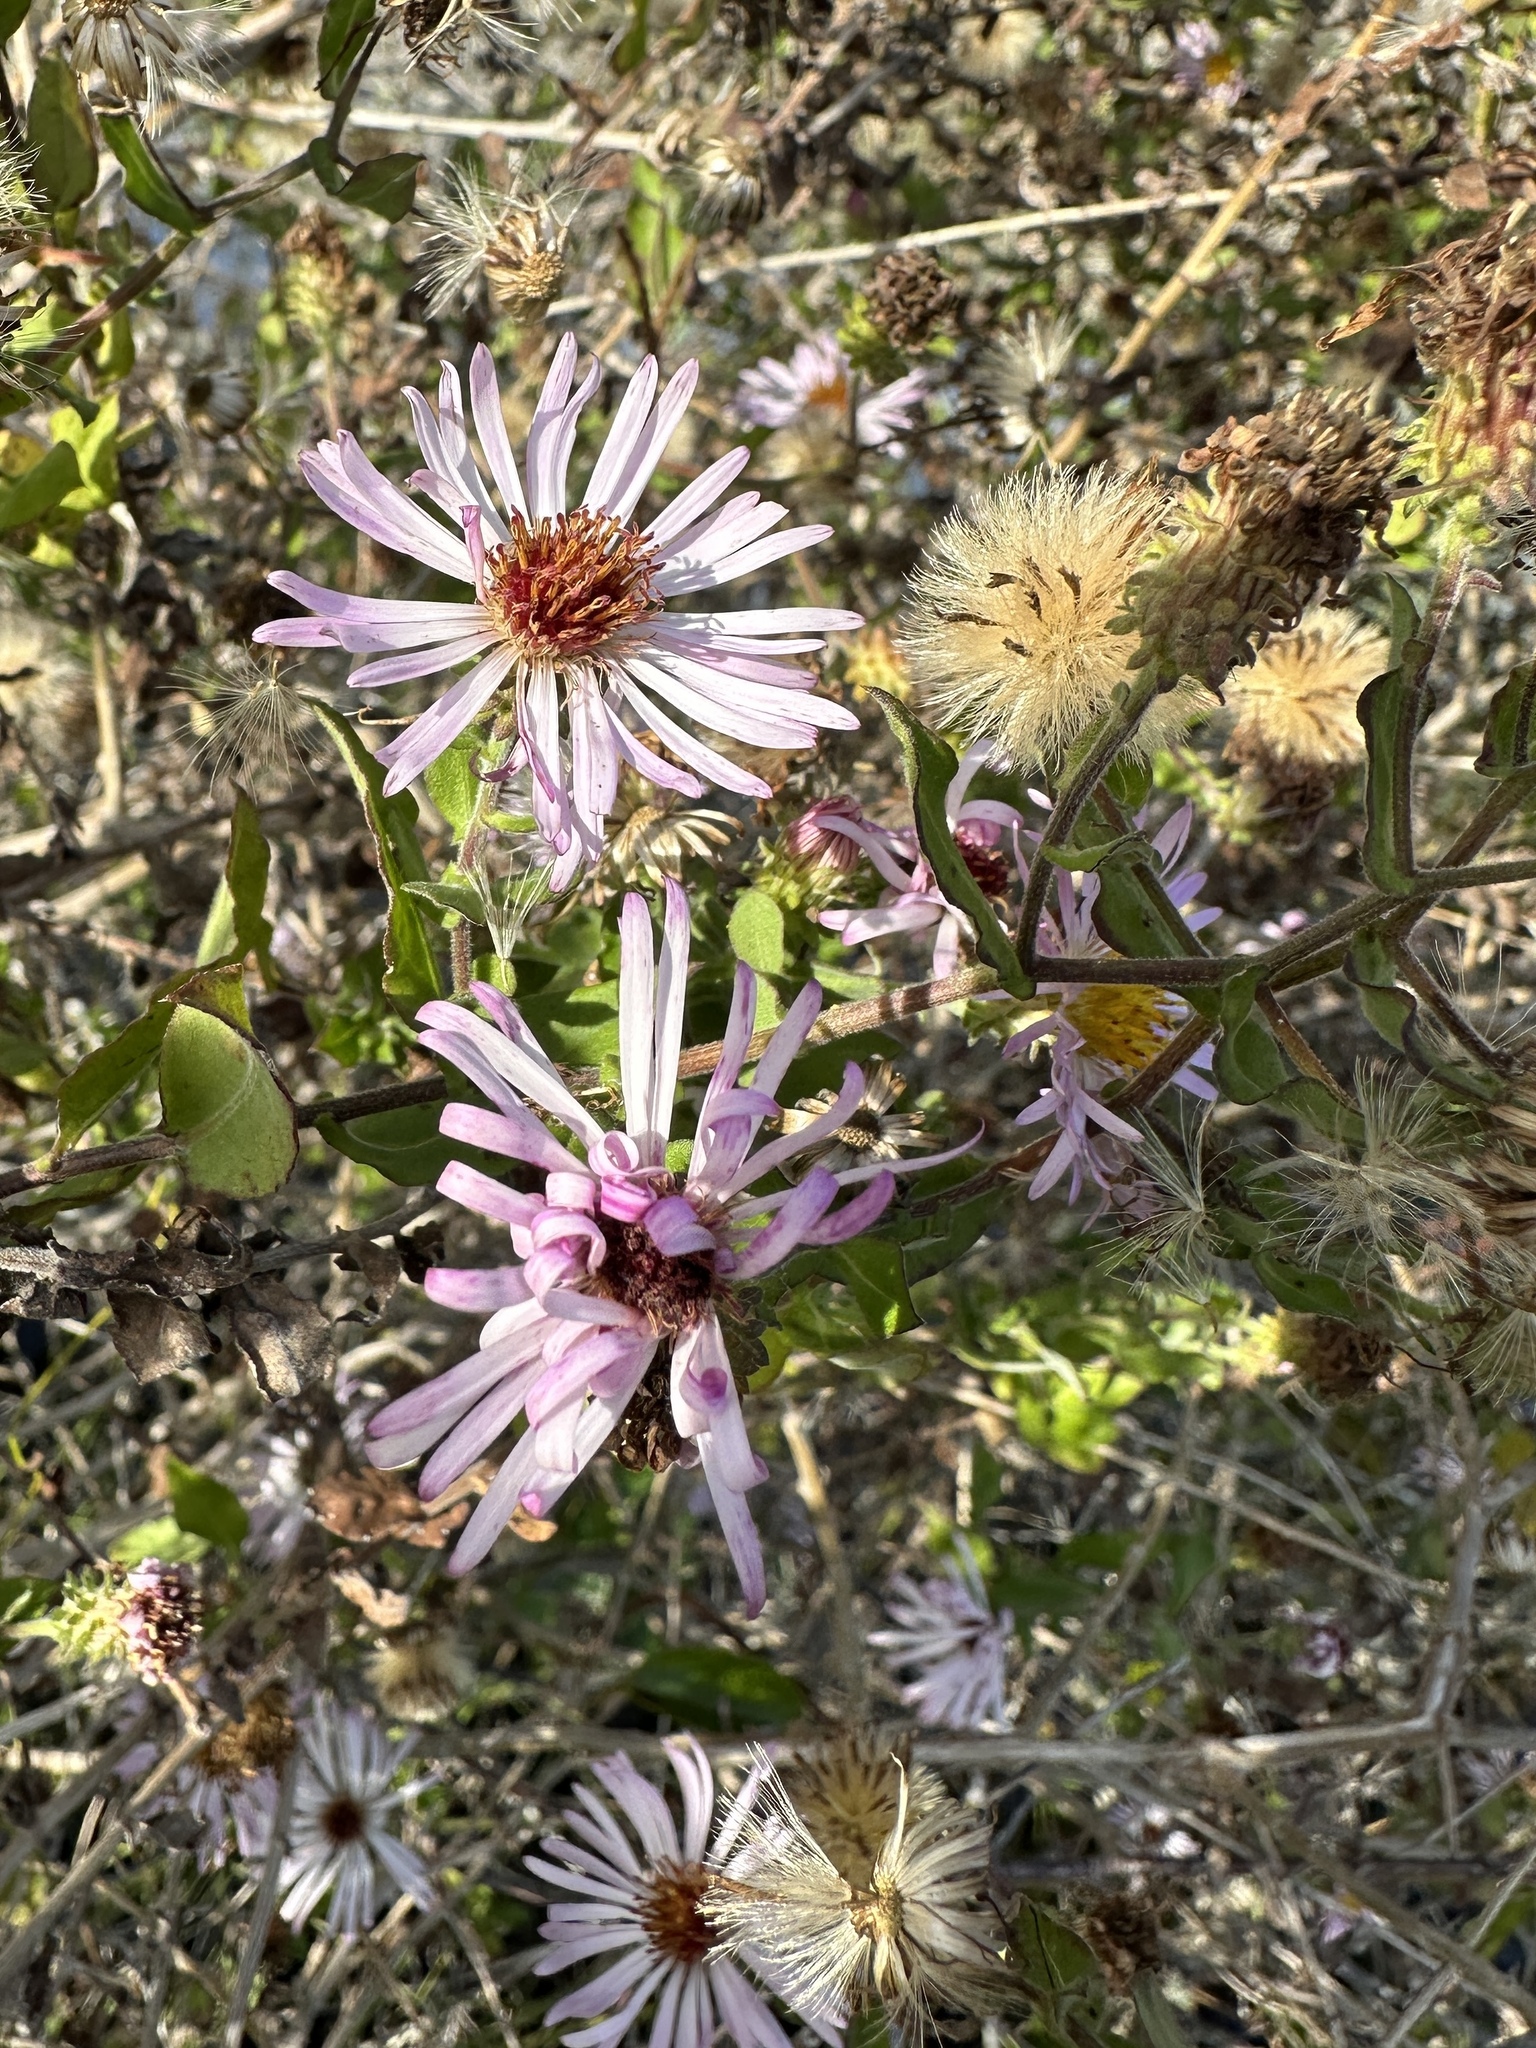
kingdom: Plantae
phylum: Tracheophyta
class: Magnoliopsida
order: Asterales
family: Asteraceae
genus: Ampelaster
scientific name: Ampelaster carolinianus
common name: Climbing aster
